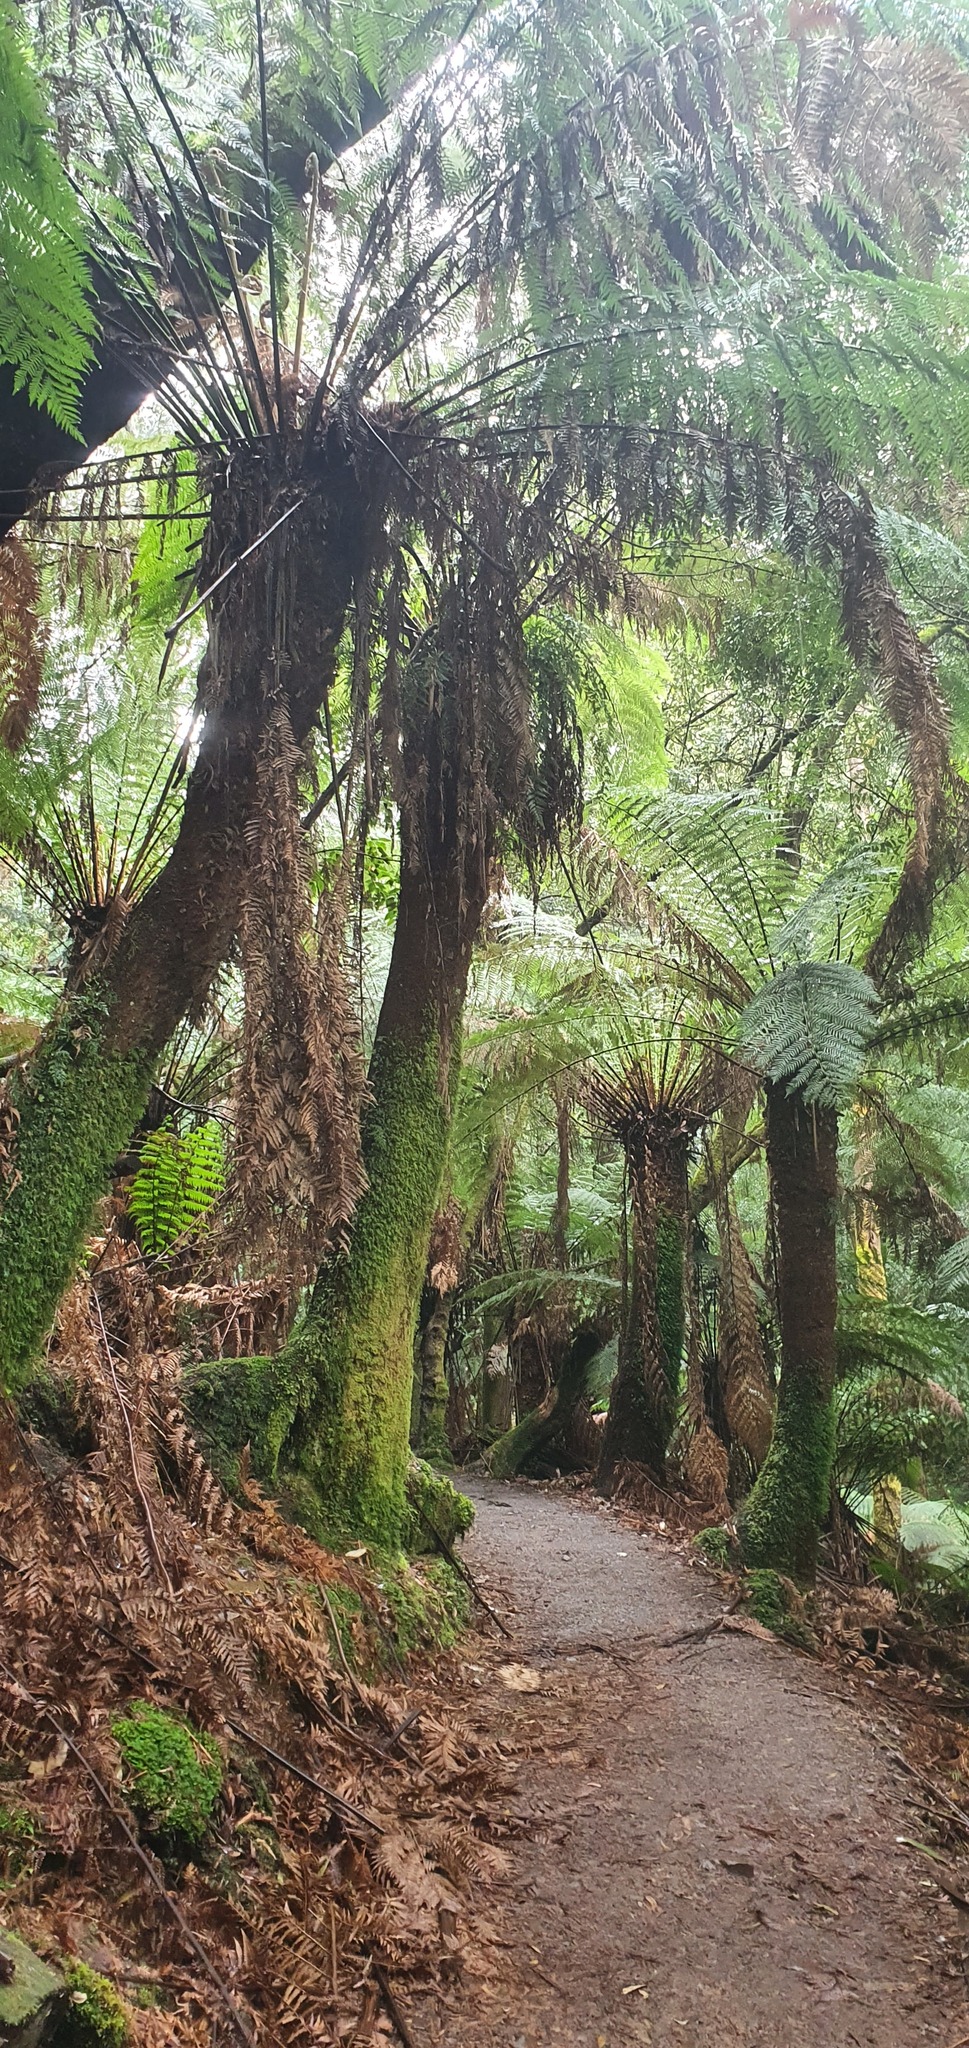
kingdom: Plantae
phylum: Tracheophyta
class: Polypodiopsida
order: Cyatheales
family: Dicksoniaceae
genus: Dicksonia
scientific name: Dicksonia antarctica
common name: Australian treefern
